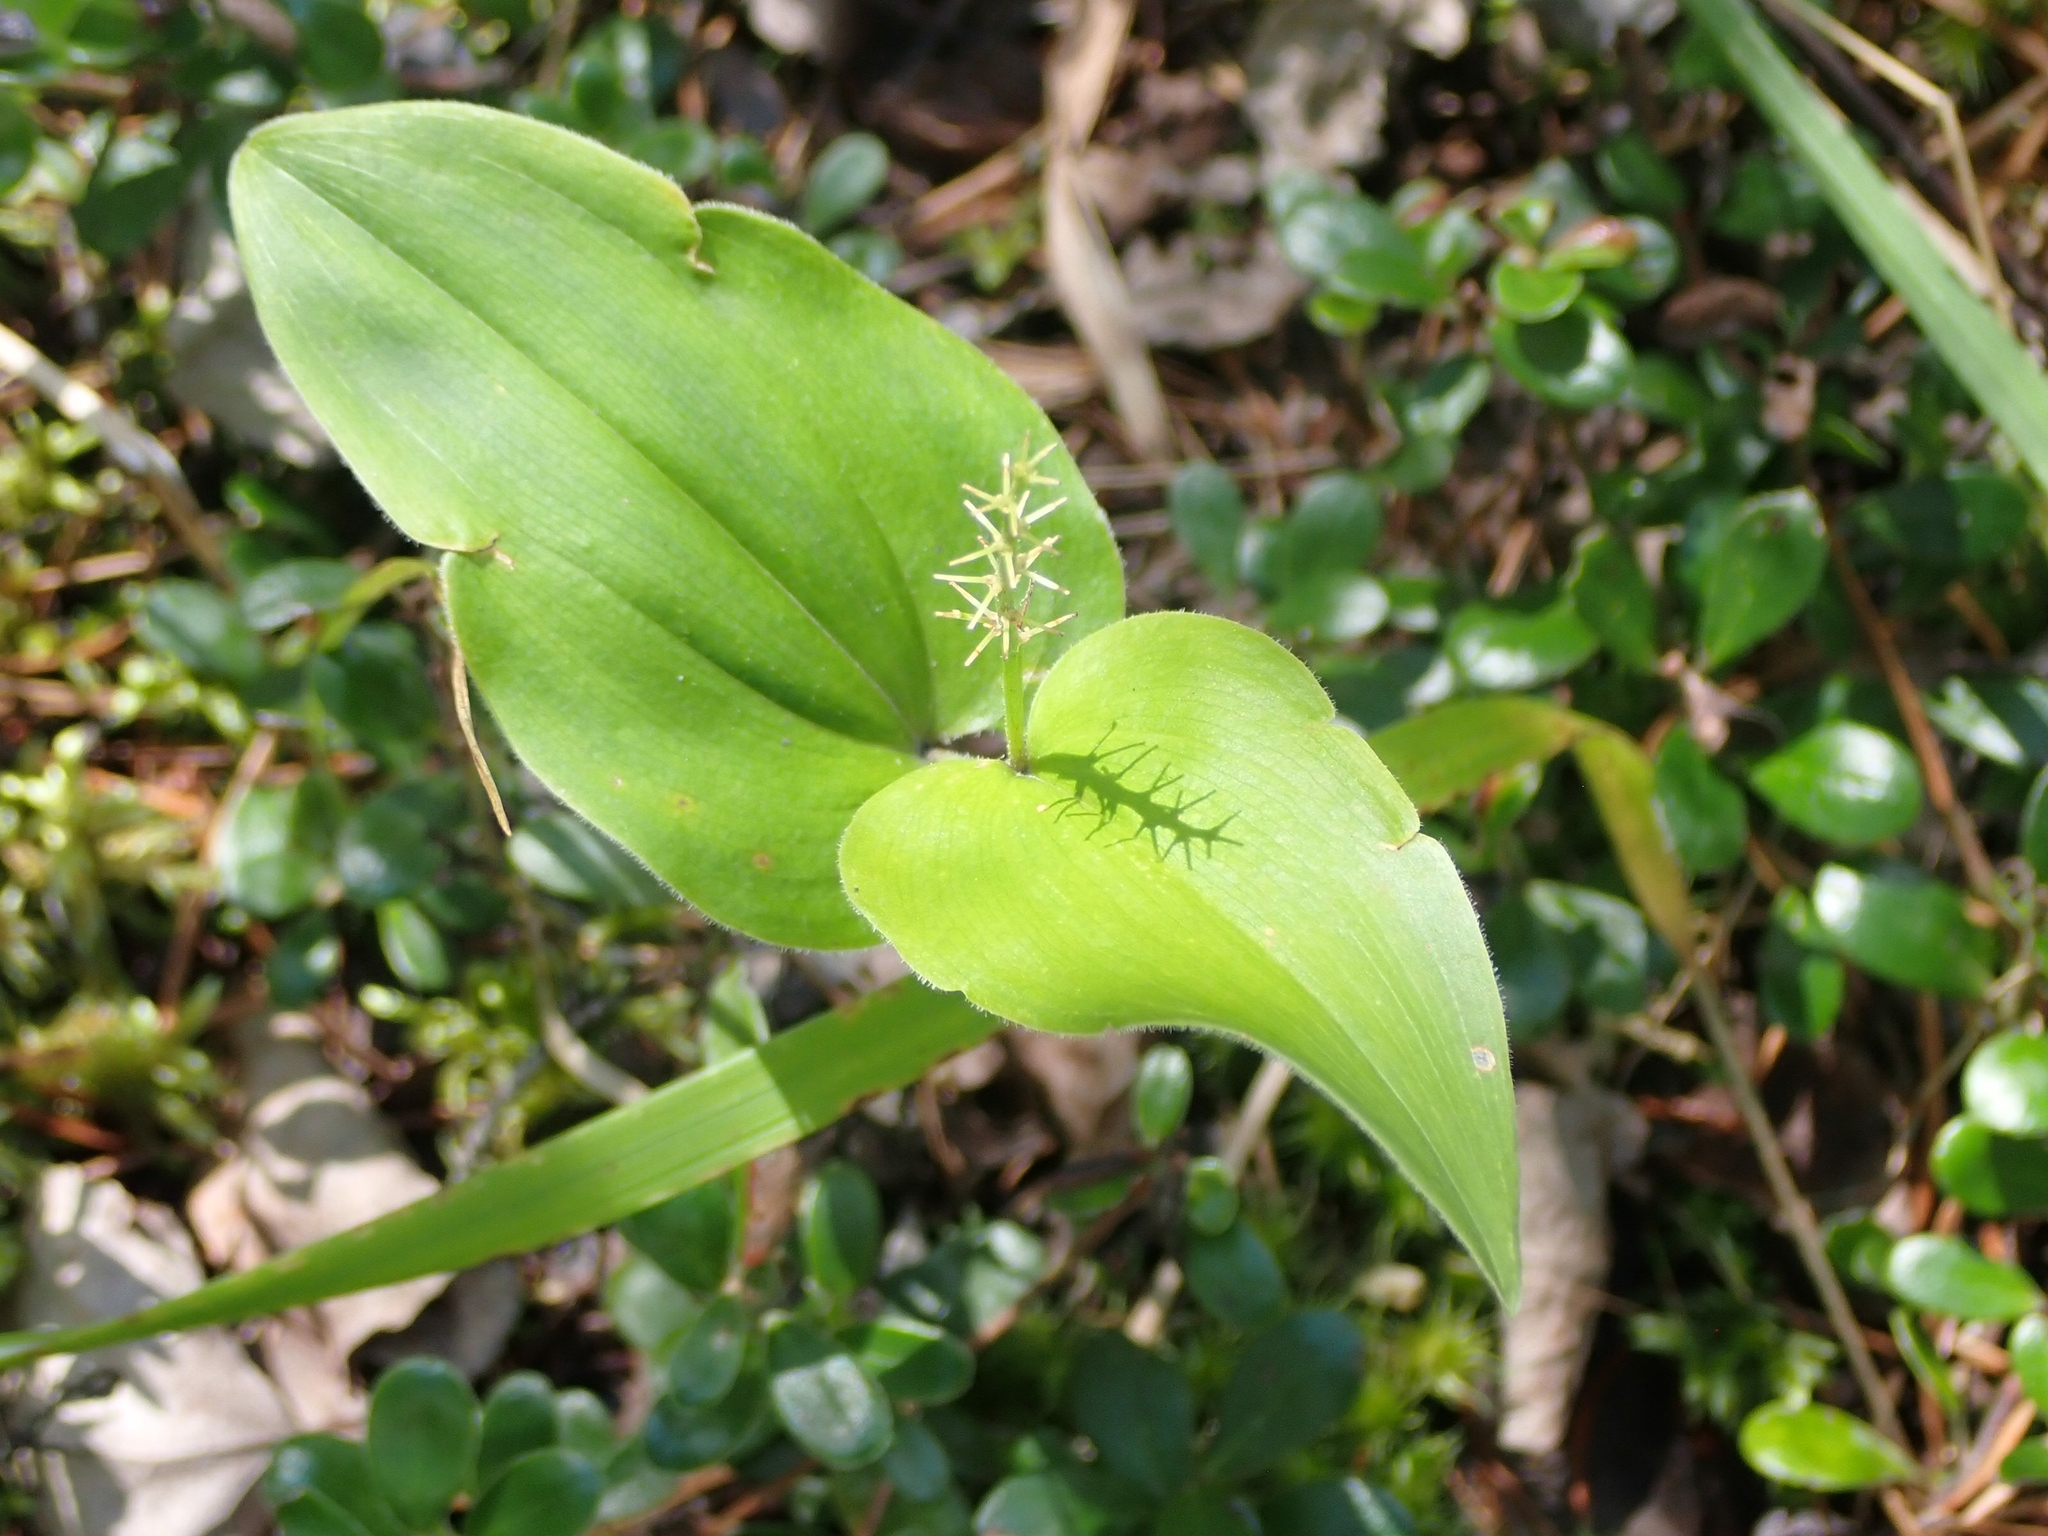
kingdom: Plantae
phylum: Tracheophyta
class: Liliopsida
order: Asparagales
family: Asparagaceae
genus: Maianthemum
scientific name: Maianthemum canadense
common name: False lily-of-the-valley
